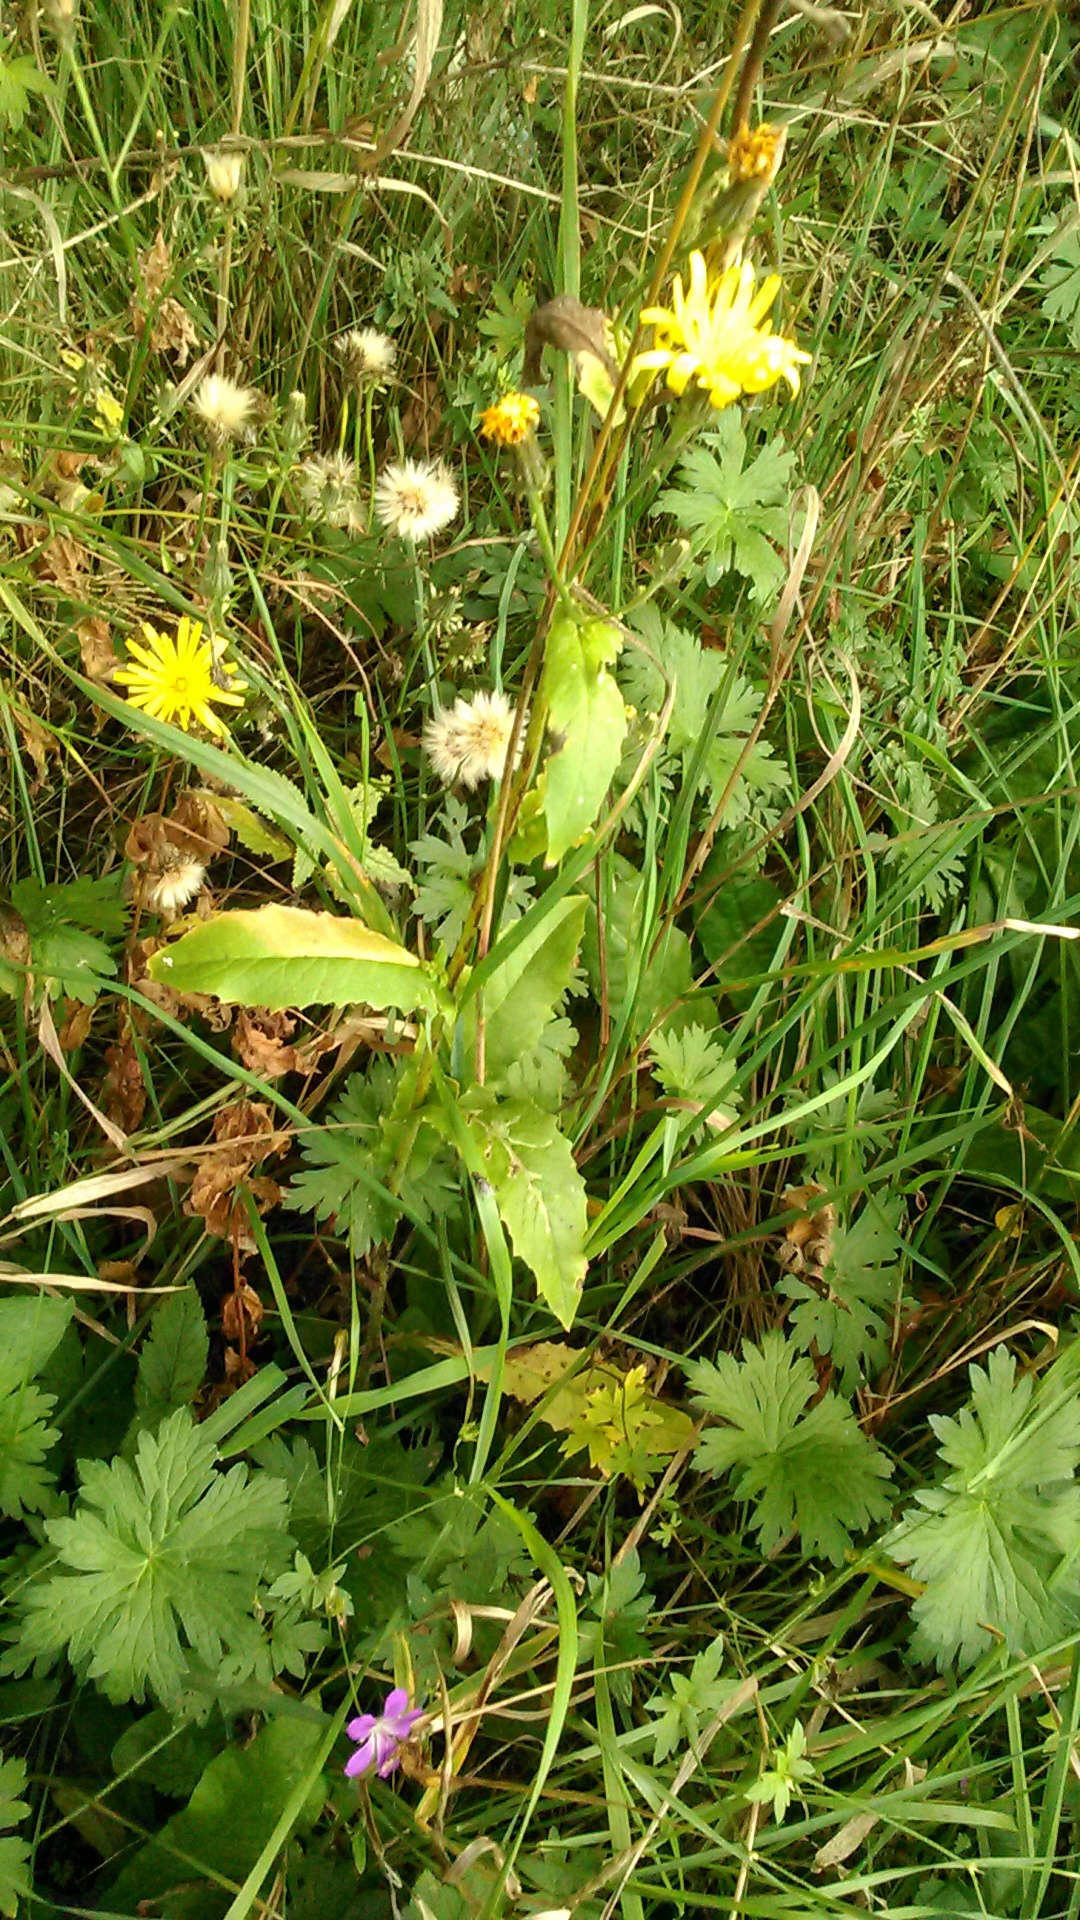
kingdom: Plantae
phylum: Tracheophyta
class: Magnoliopsida
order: Asterales
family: Asteraceae
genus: Picris
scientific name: Picris hieracioides
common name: Hawkweed oxtongue
